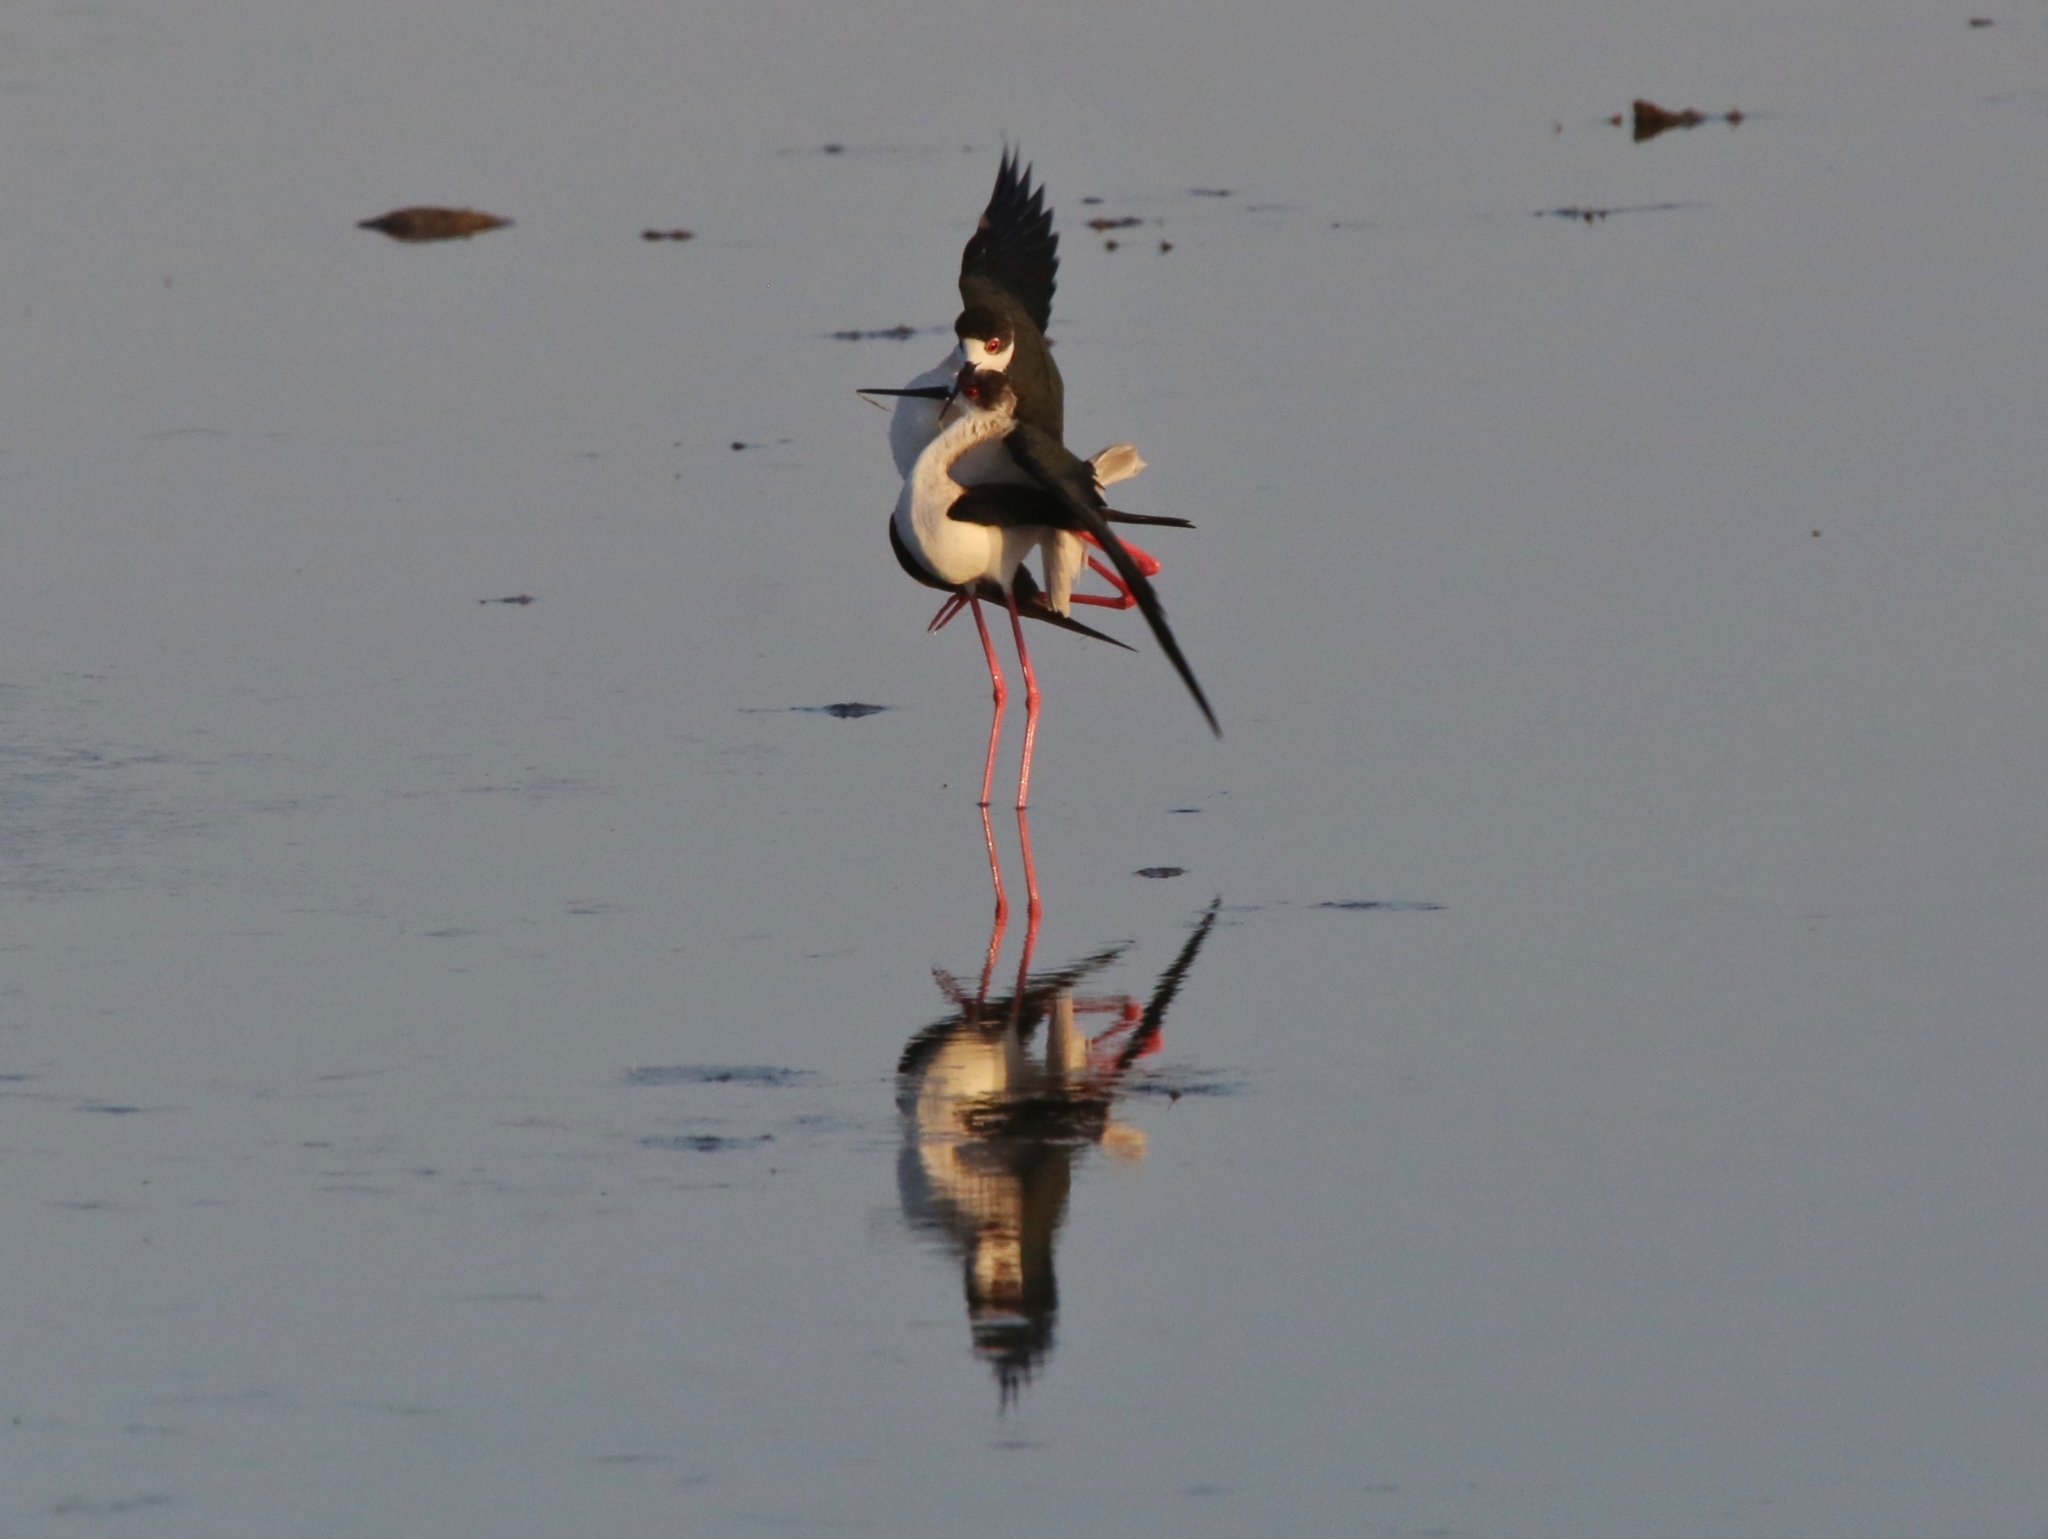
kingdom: Animalia
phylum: Chordata
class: Aves
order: Charadriiformes
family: Recurvirostridae
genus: Himantopus
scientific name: Himantopus himantopus
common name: Black-winged stilt
